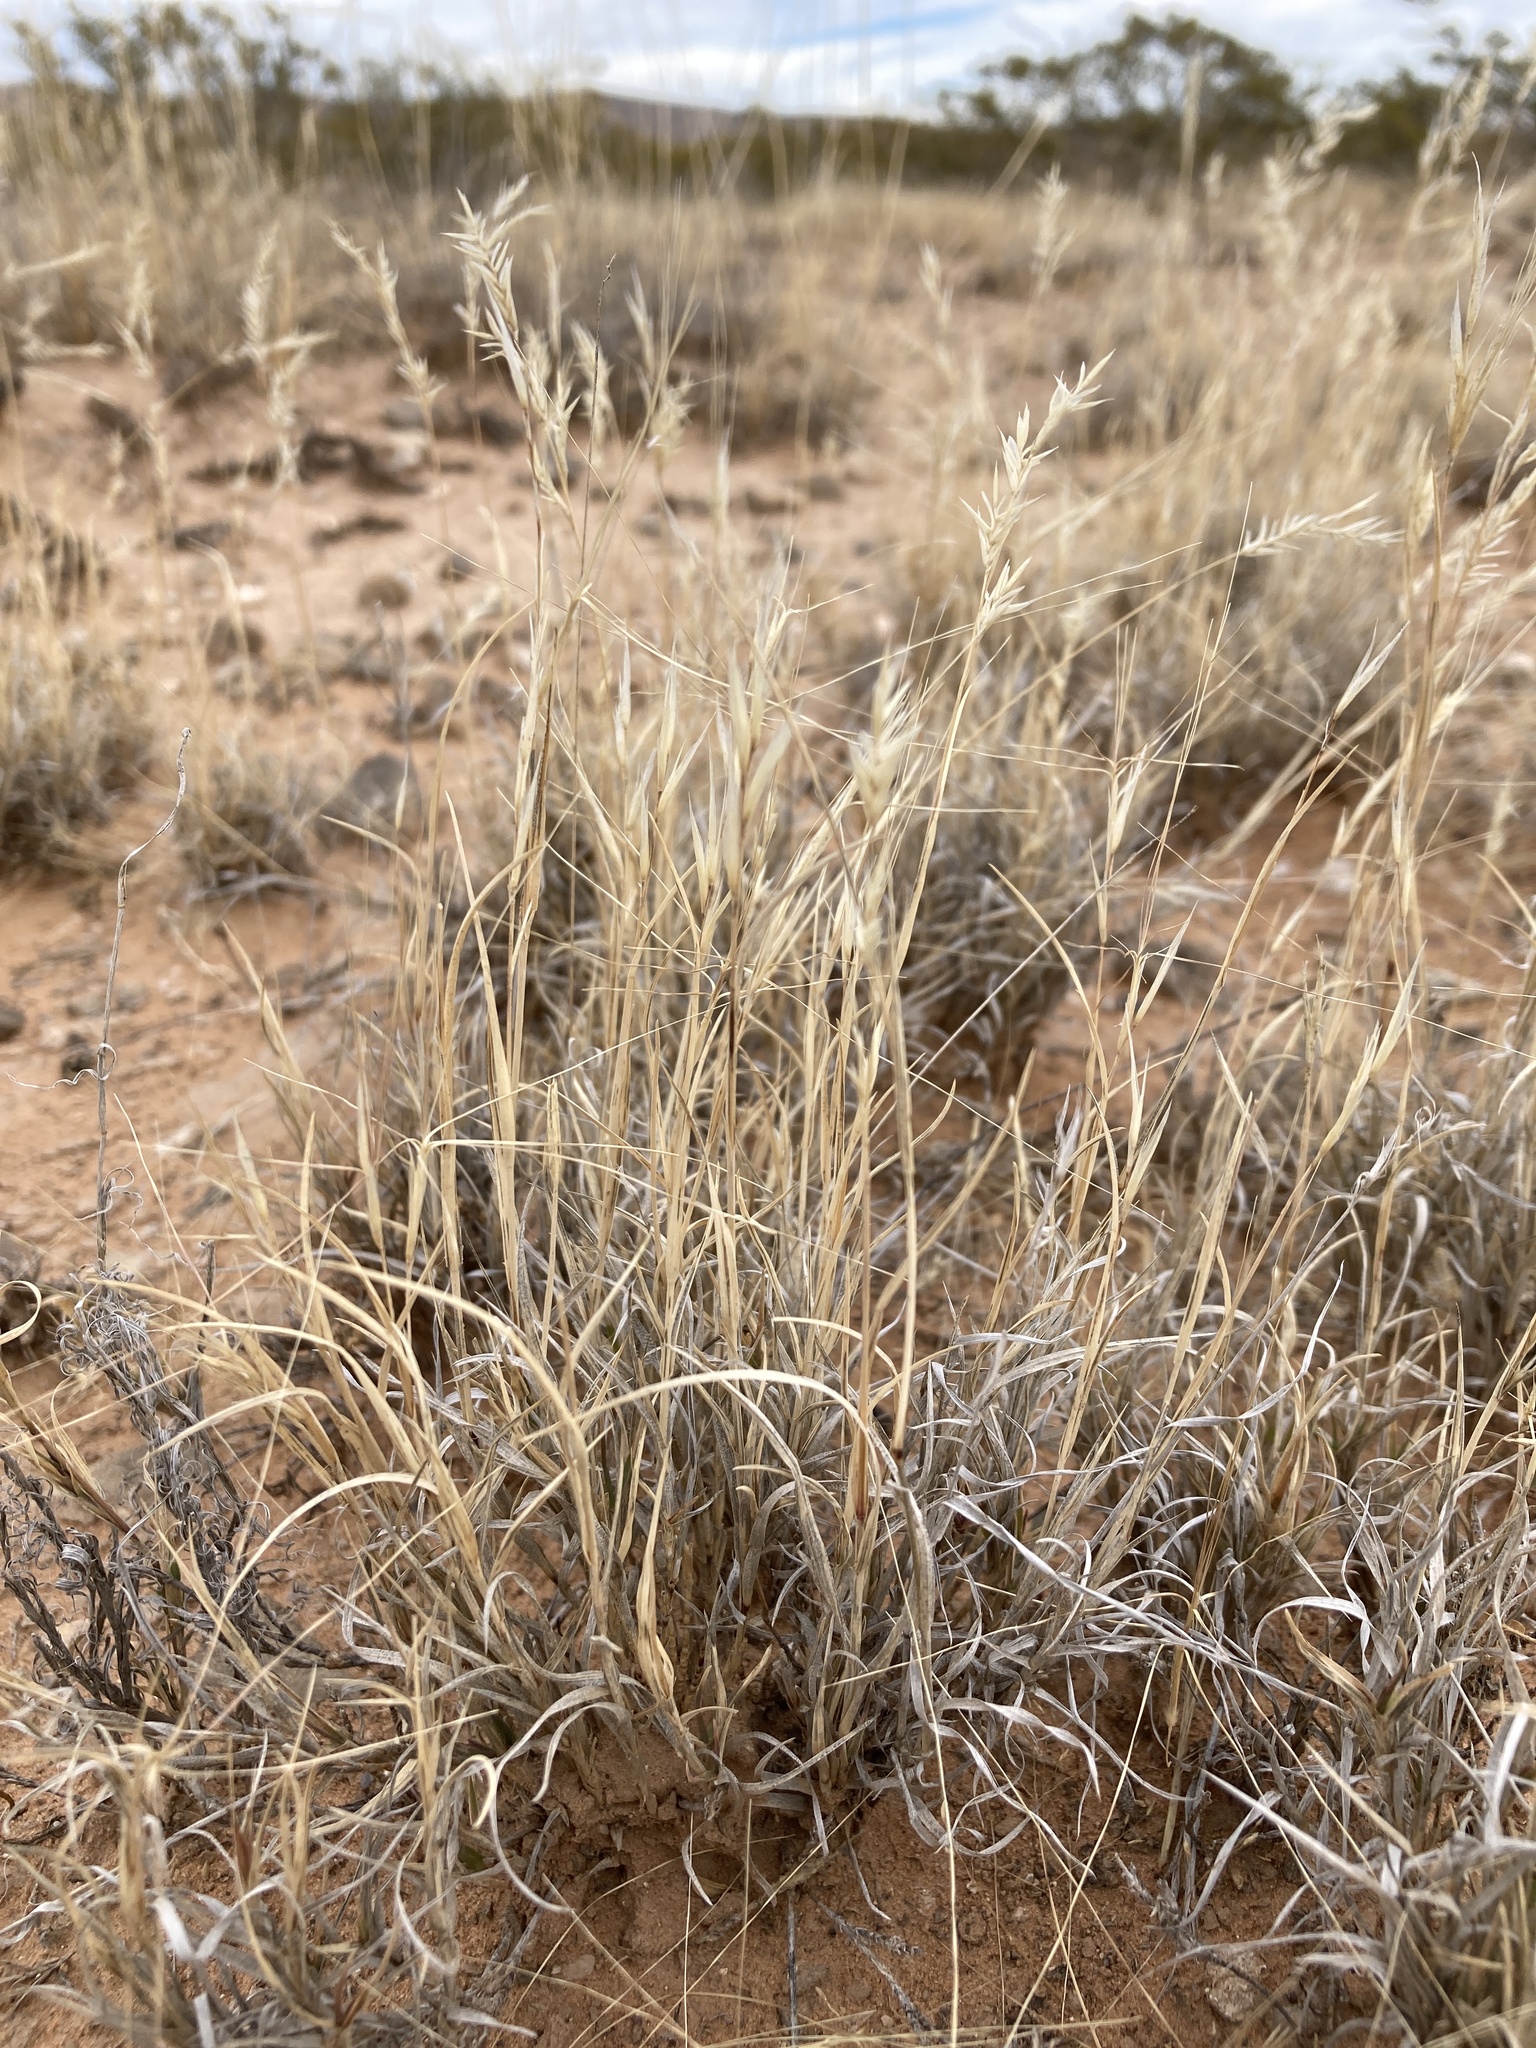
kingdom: Plantae
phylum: Tracheophyta
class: Liliopsida
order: Poales
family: Poaceae
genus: Scleropogon
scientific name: Scleropogon brevifolius
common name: Burro grass
